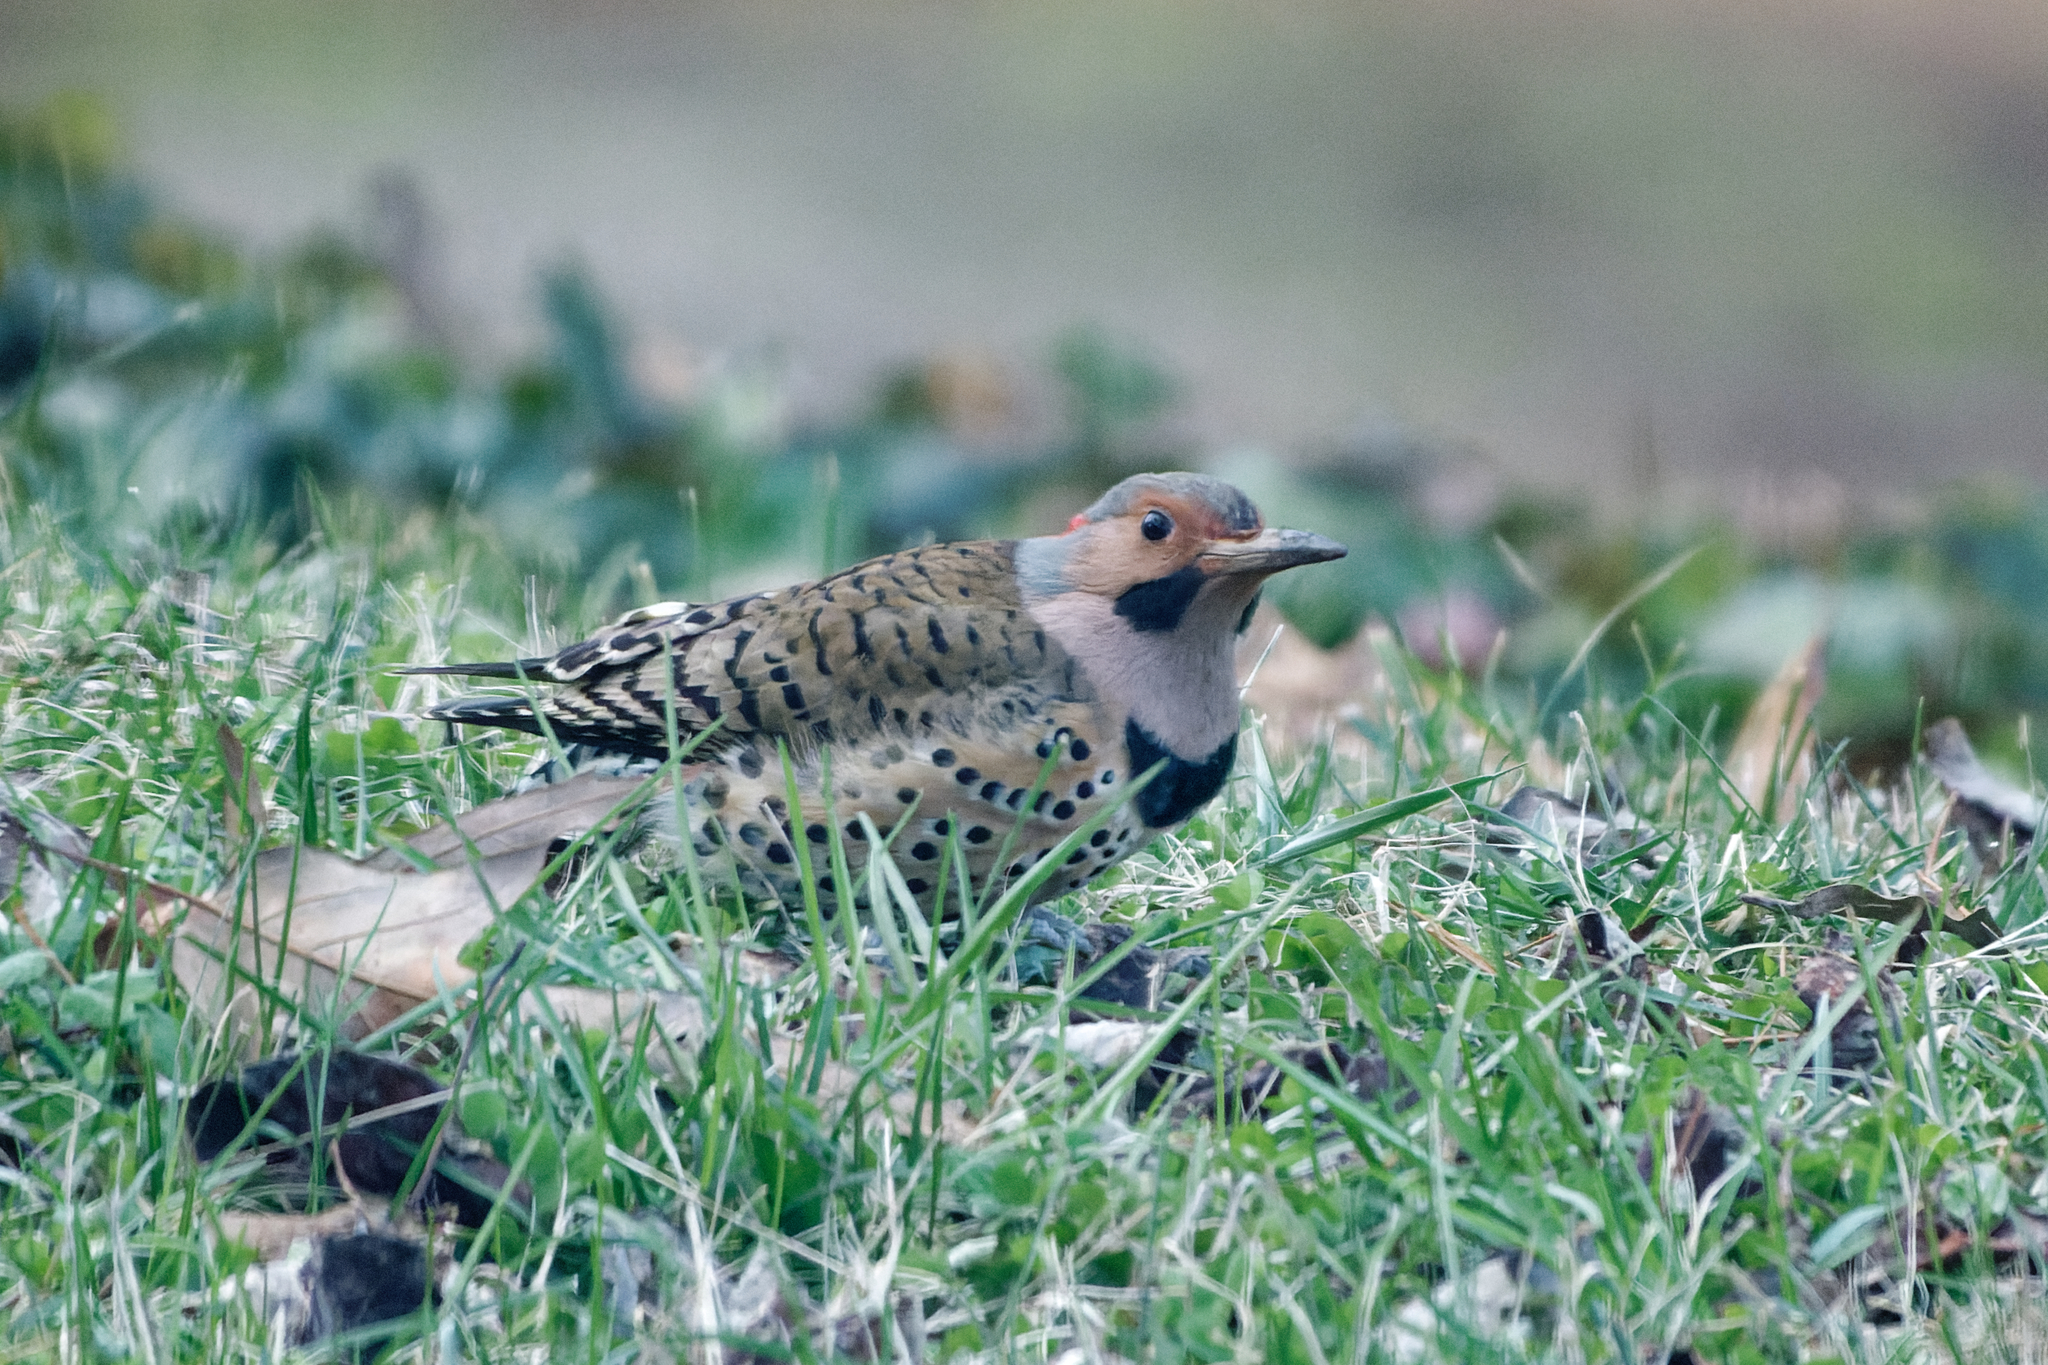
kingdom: Animalia
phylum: Chordata
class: Aves
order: Piciformes
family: Picidae
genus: Colaptes
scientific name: Colaptes auratus
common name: Northern flicker
